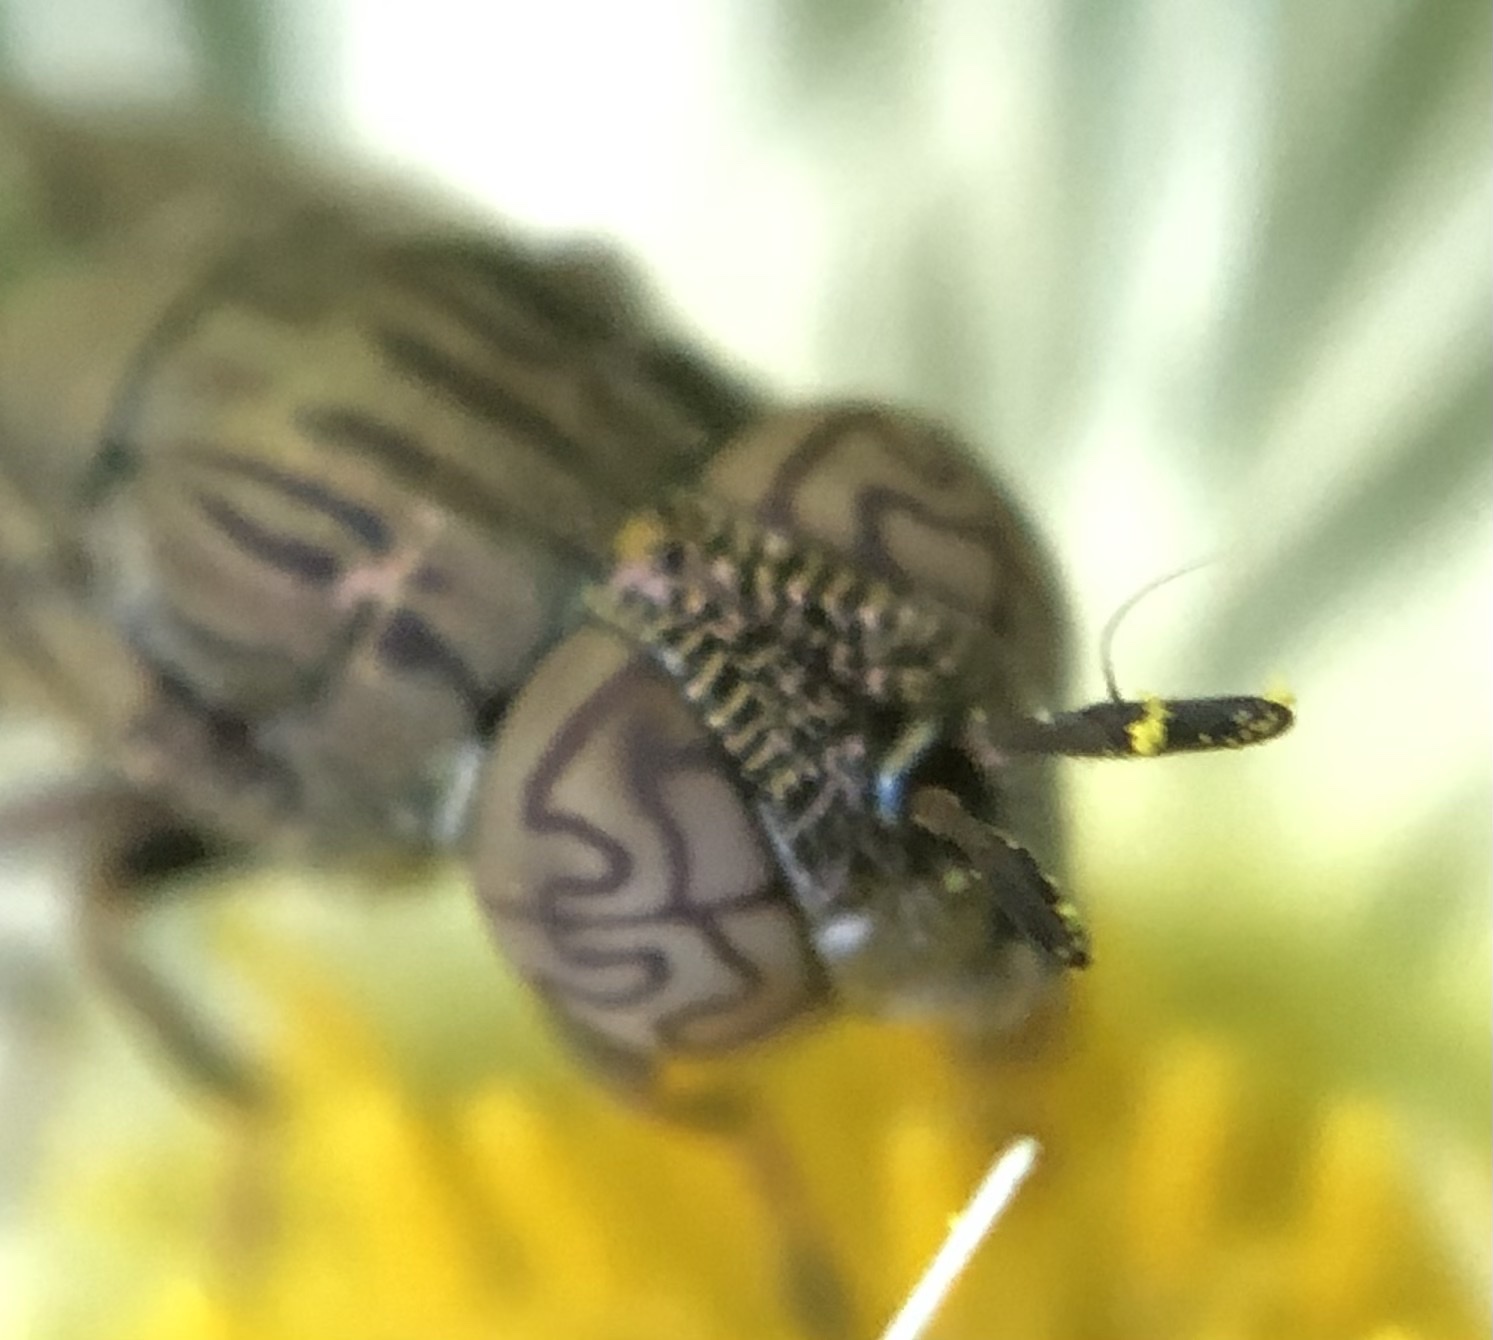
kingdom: Animalia
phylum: Arthropoda
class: Insecta
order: Diptera
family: Syrphidae
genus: Orthonevra
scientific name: Orthonevra nitida
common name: Wavy mucksucker
